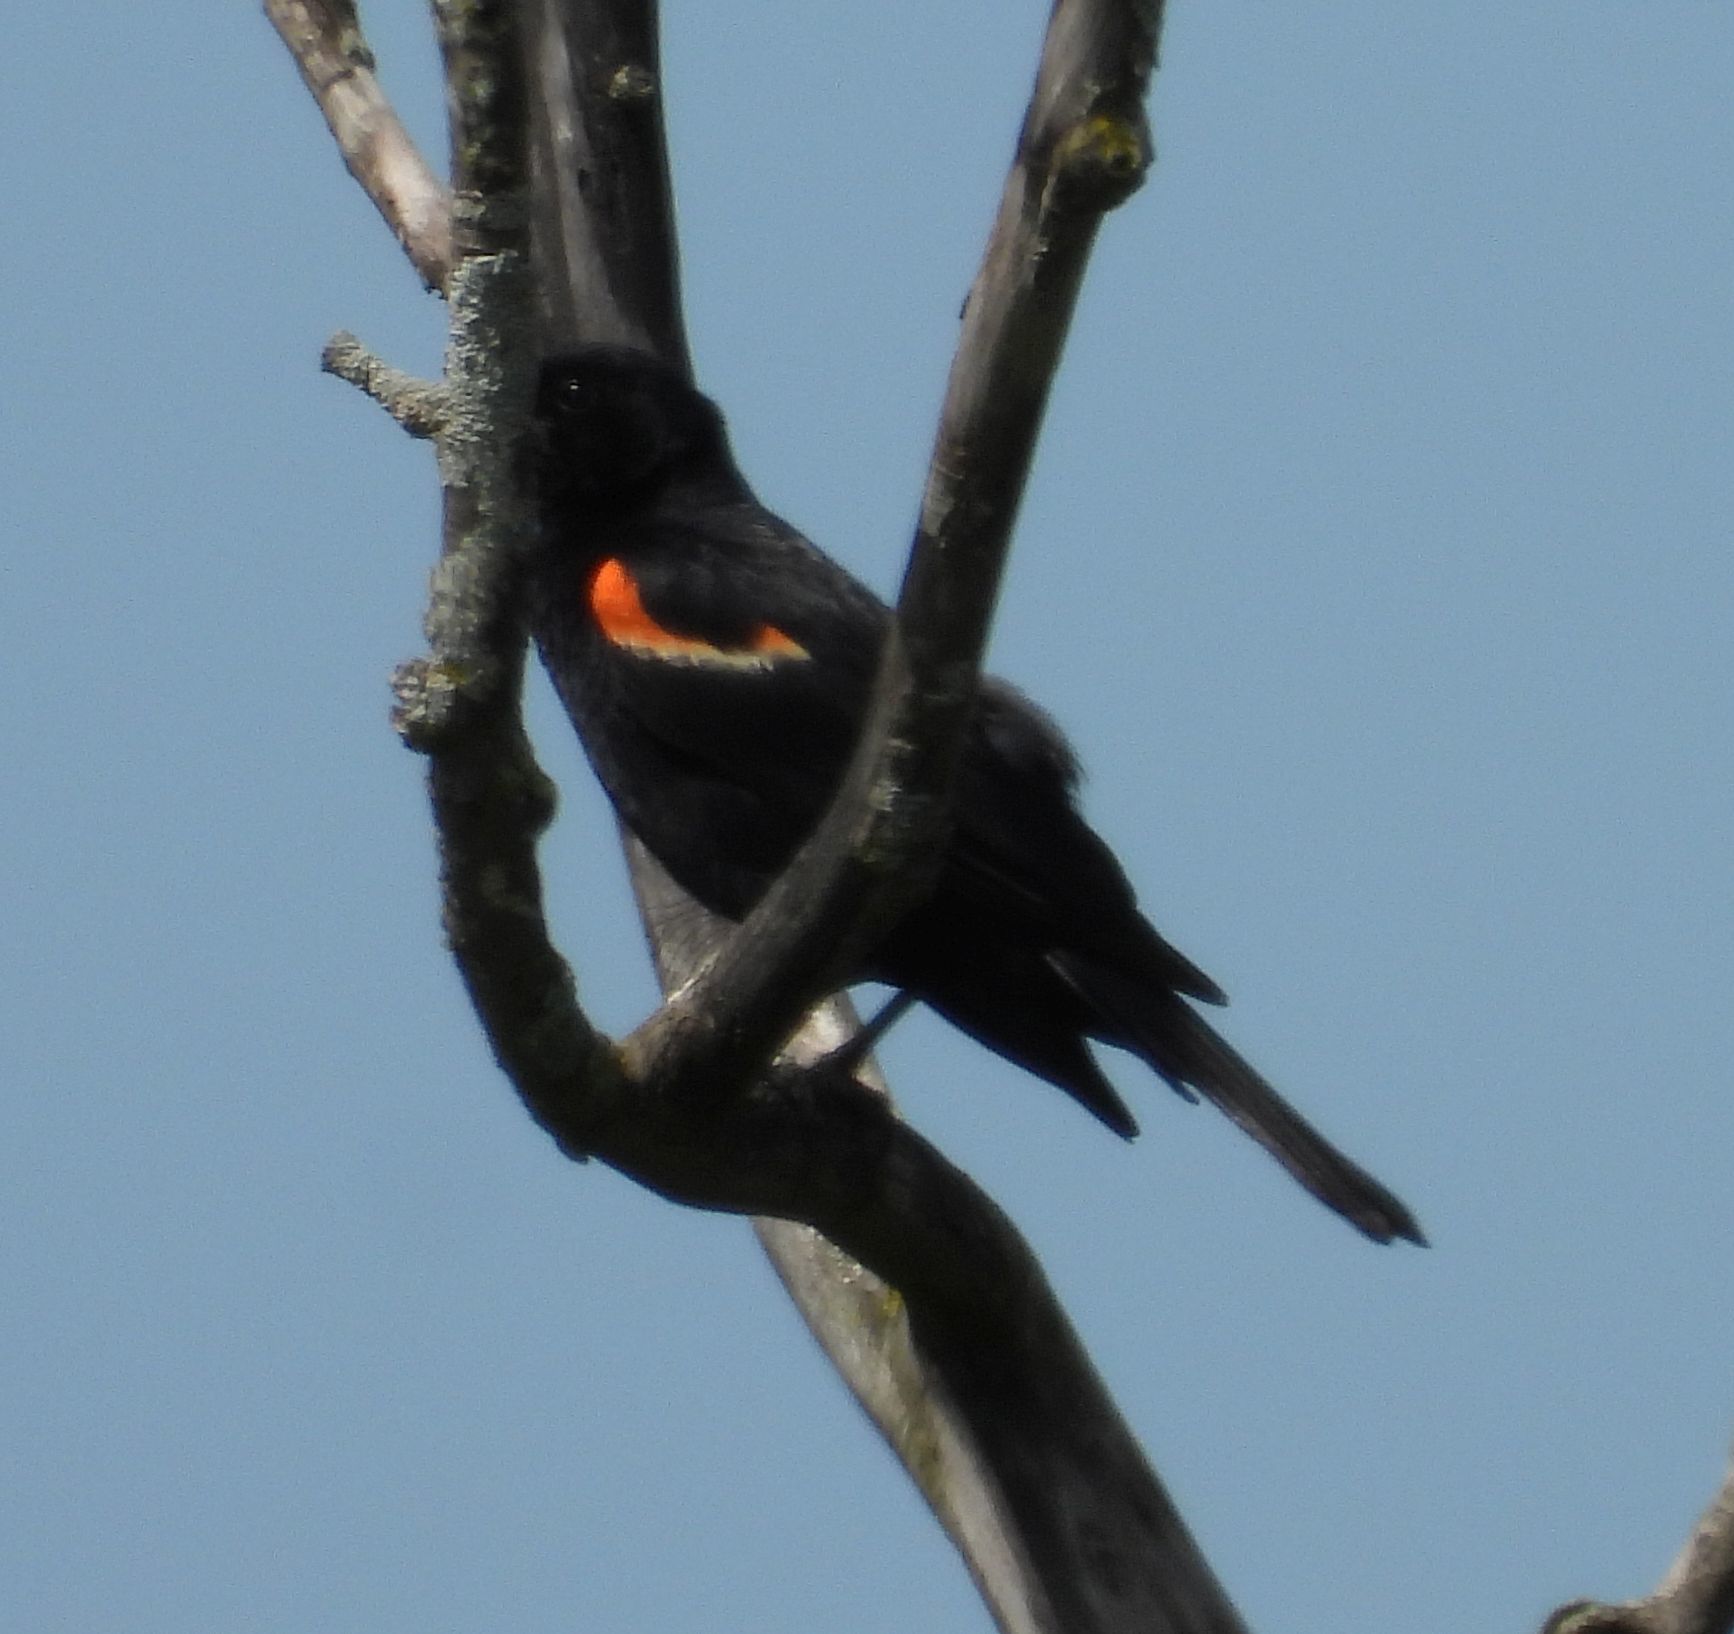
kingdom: Animalia
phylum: Chordata
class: Aves
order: Passeriformes
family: Icteridae
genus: Agelaius
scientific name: Agelaius phoeniceus
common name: Red-winged blackbird
